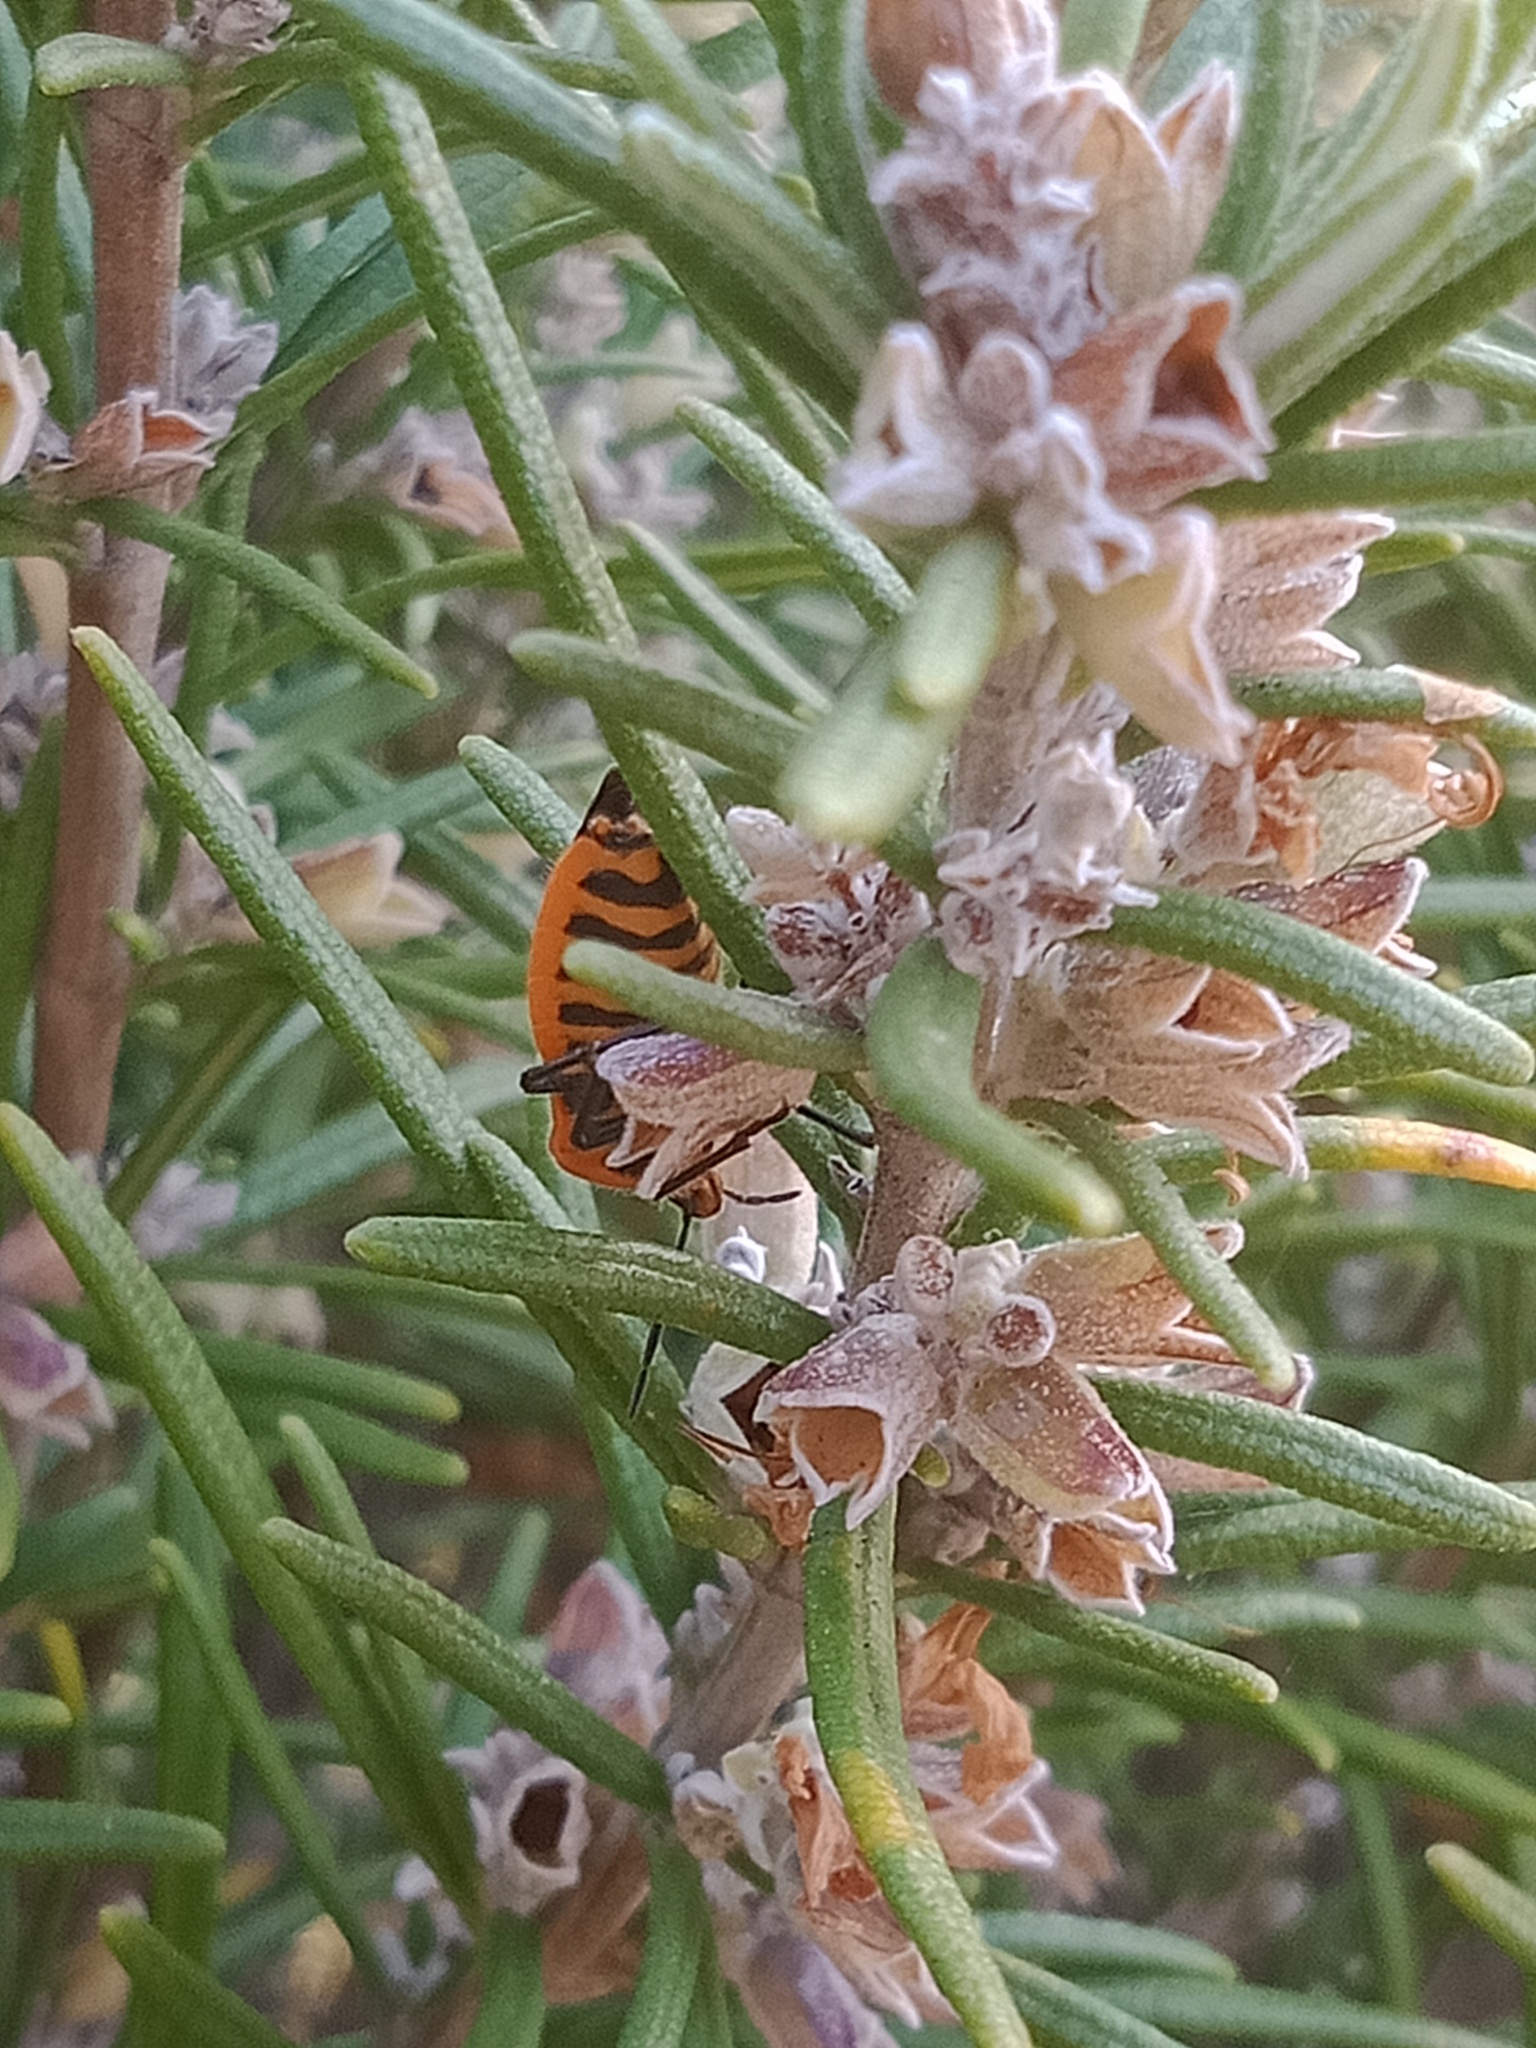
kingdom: Animalia
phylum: Arthropoda
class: Insecta
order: Hemiptera
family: Pentatomidae
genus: Agonoscelis
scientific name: Agonoscelis rutila
